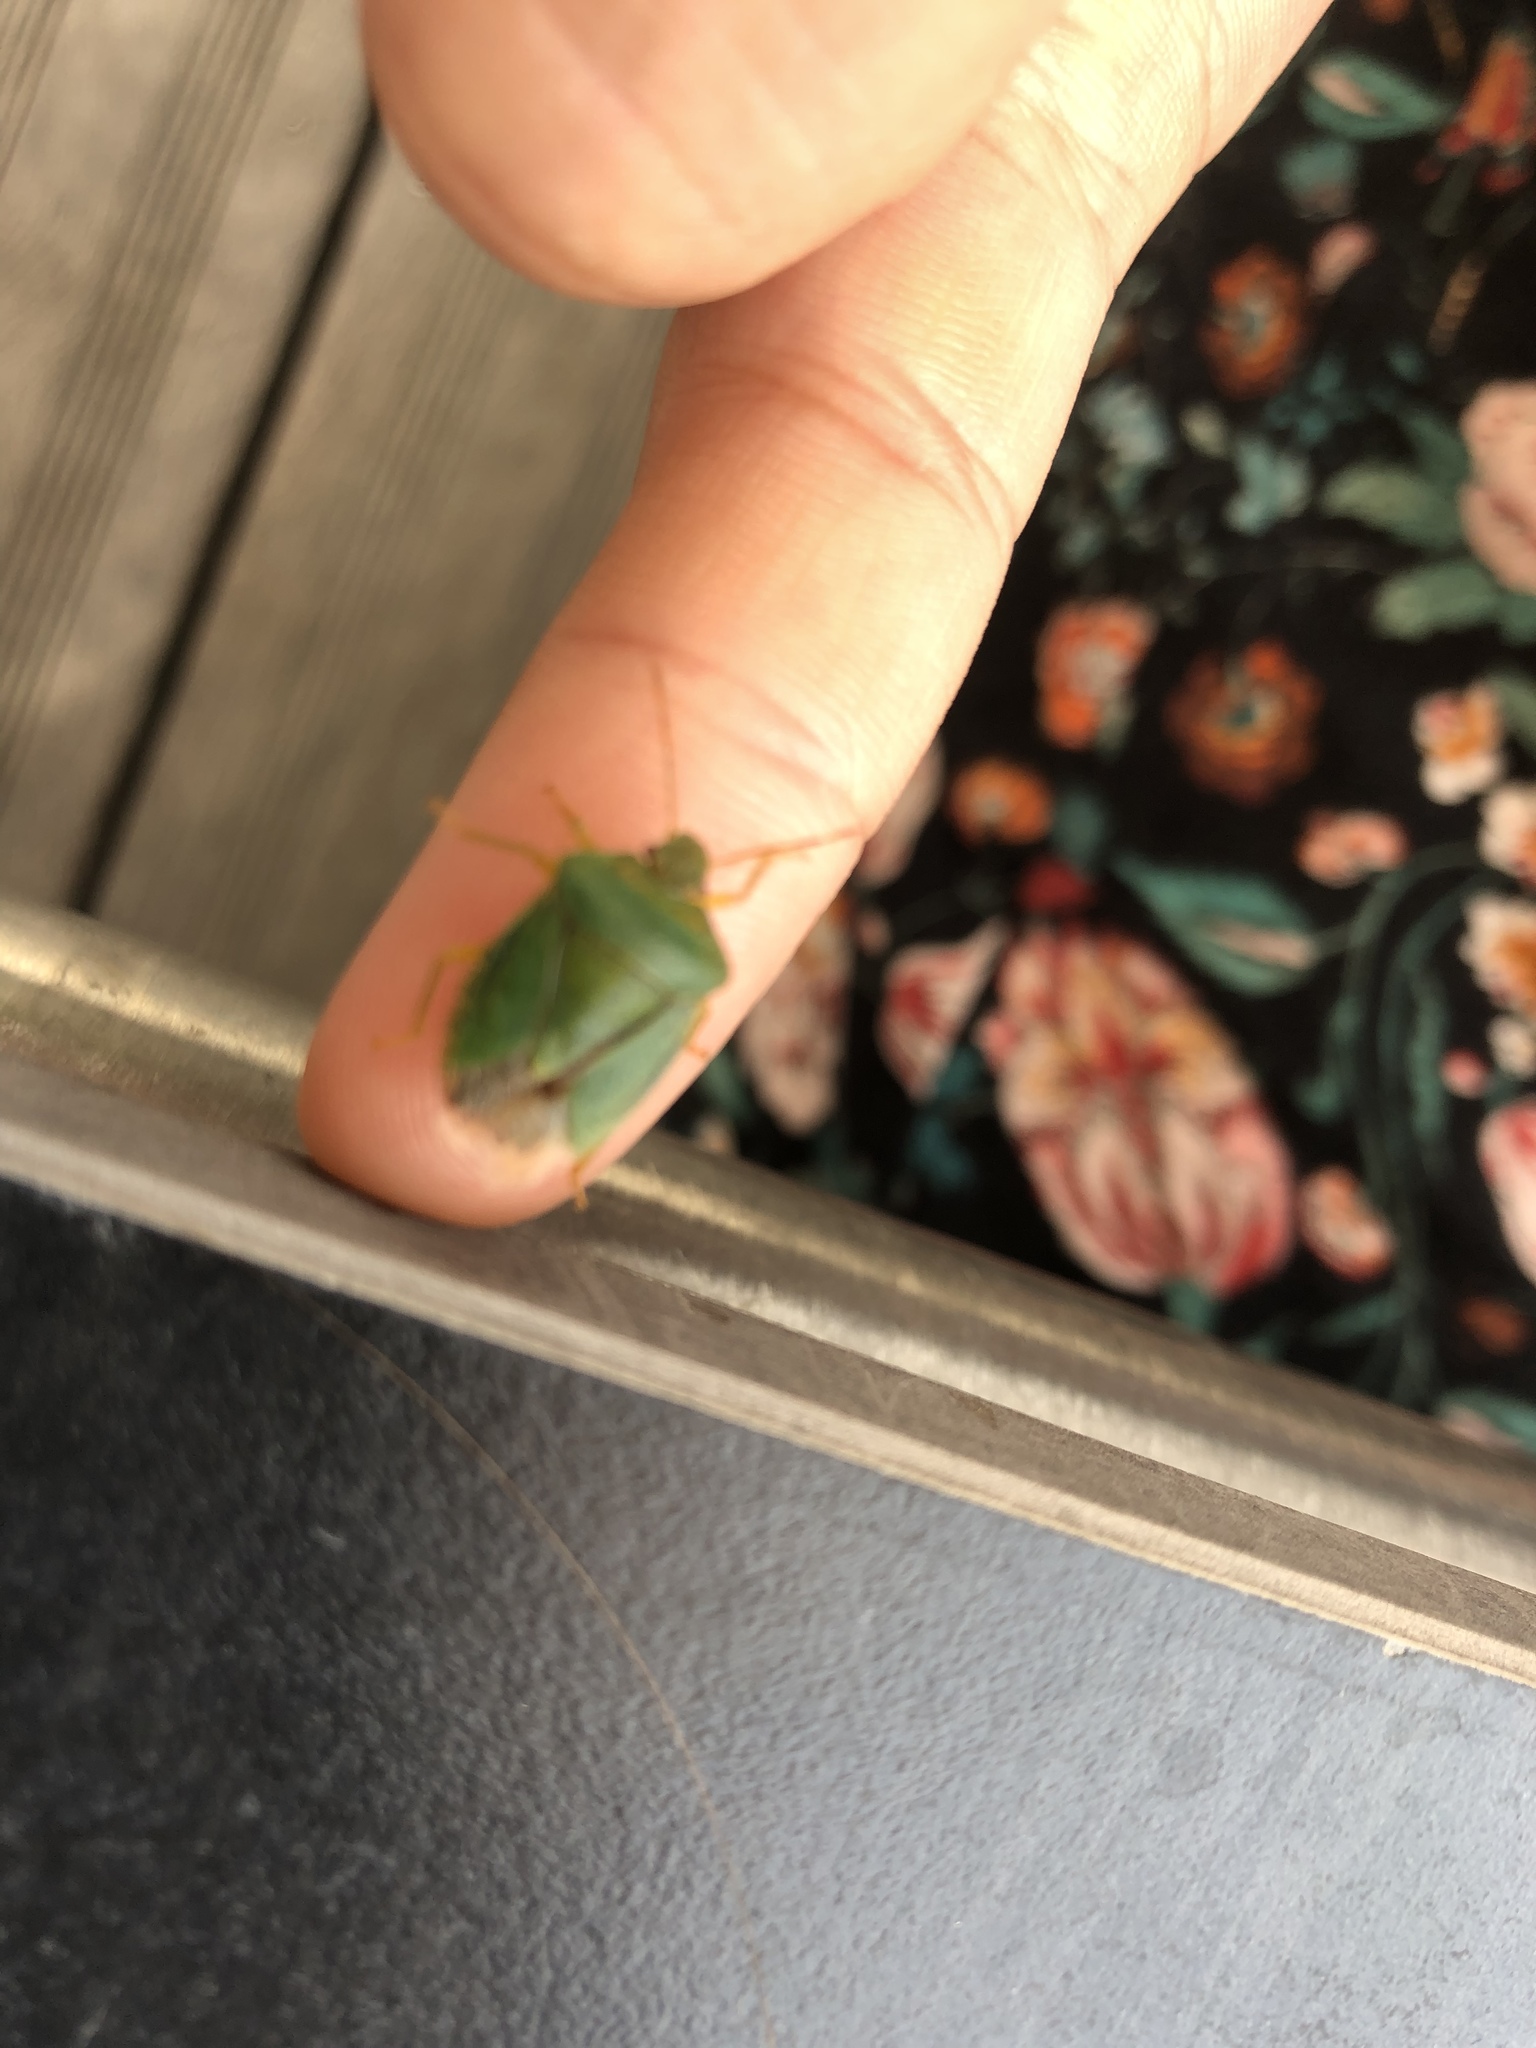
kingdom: Animalia
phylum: Arthropoda
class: Insecta
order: Hemiptera
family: Pentatomidae
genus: Palomena
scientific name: Palomena prasina
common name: Green shieldbug
